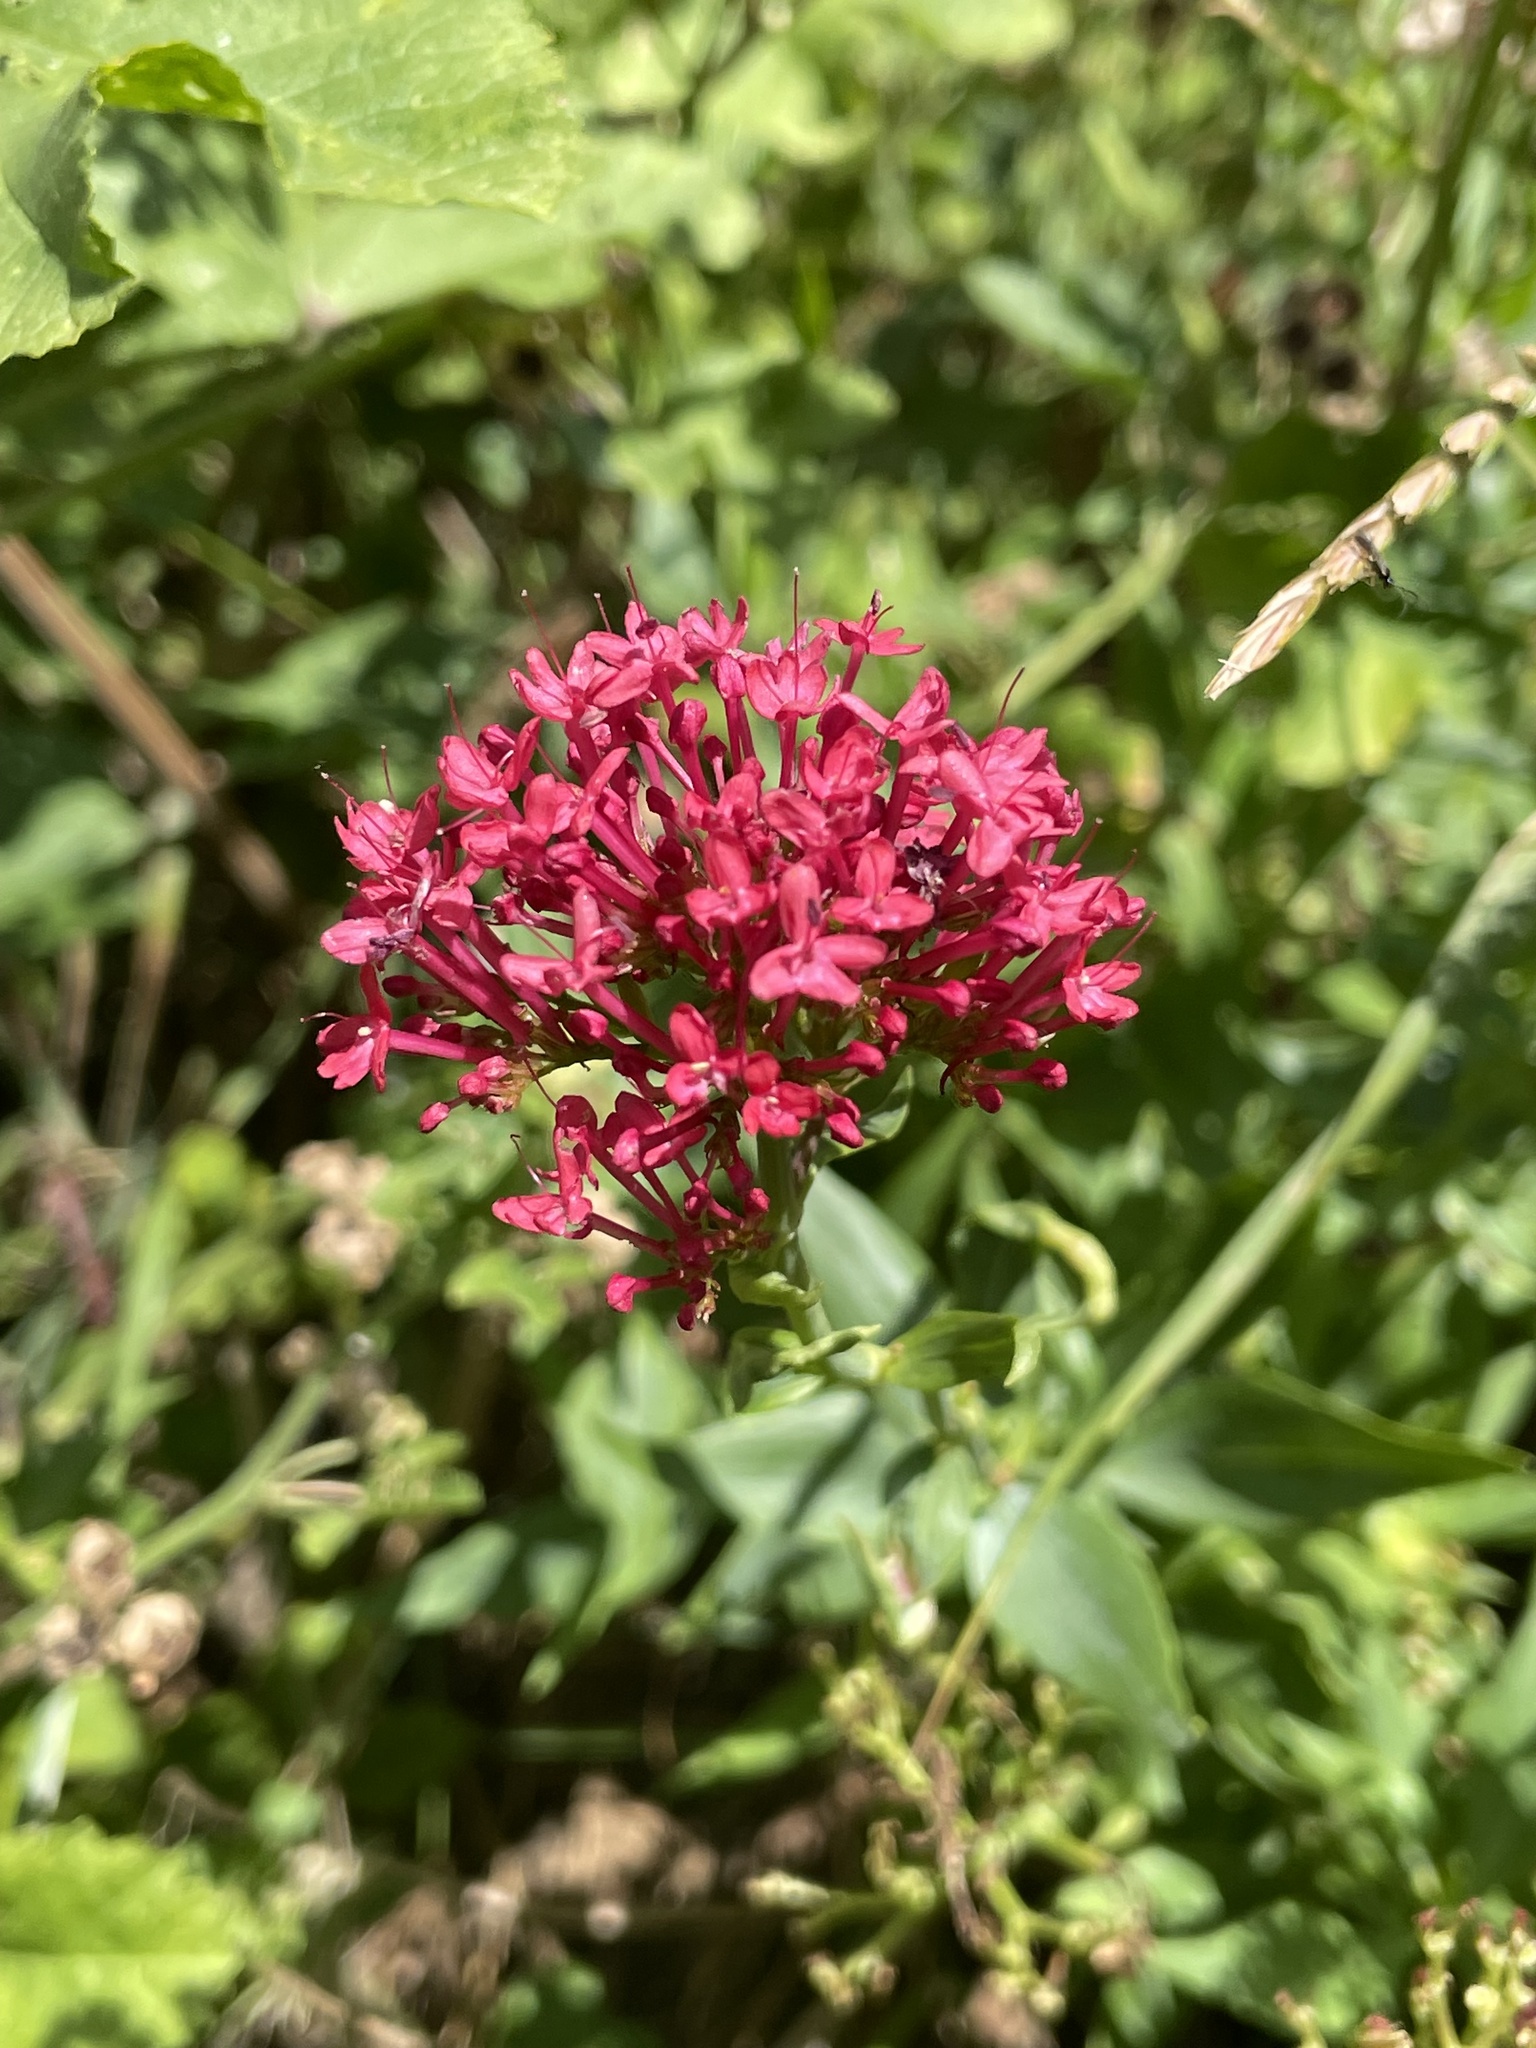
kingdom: Plantae
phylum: Tracheophyta
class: Magnoliopsida
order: Dipsacales
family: Caprifoliaceae
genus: Centranthus
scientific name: Centranthus ruber
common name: Red valerian
